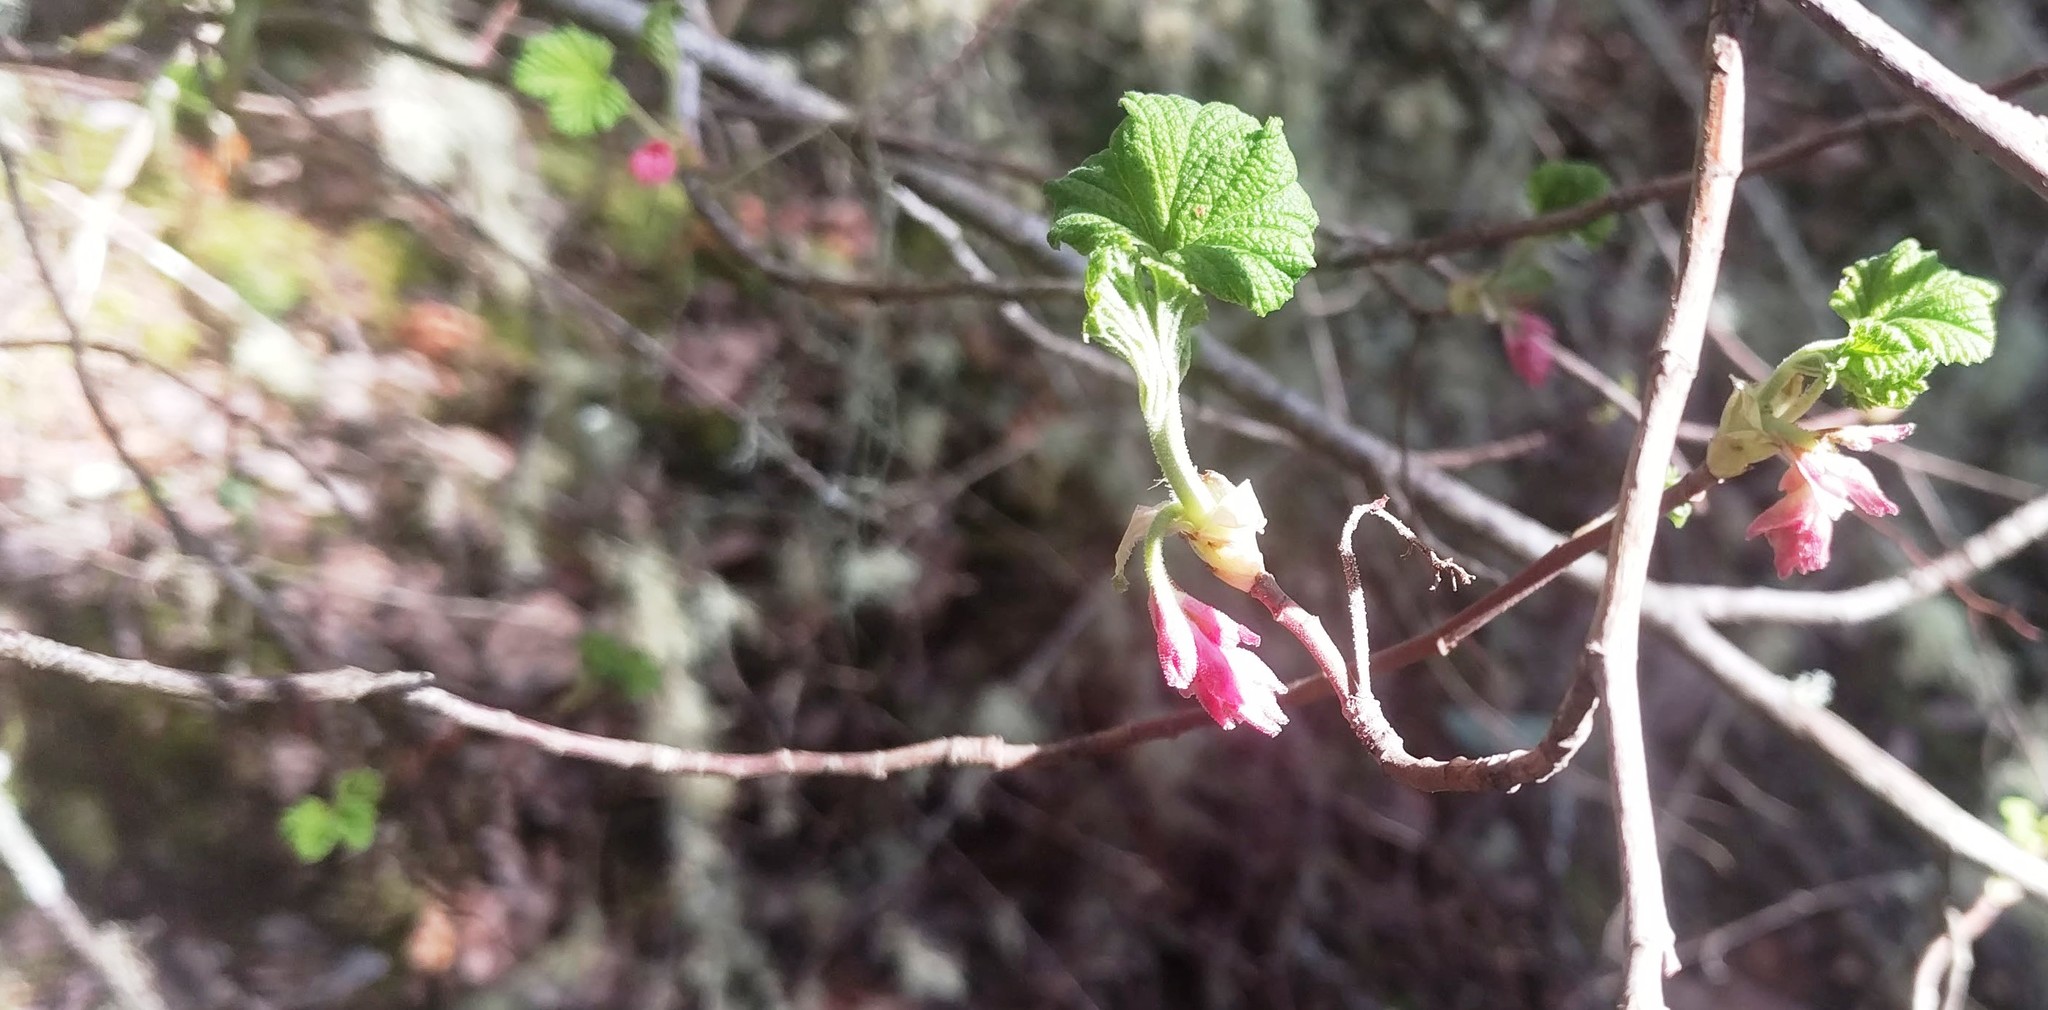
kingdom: Plantae
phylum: Tracheophyta
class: Magnoliopsida
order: Saxifragales
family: Grossulariaceae
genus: Ribes
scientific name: Ribes sanguineum
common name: Flowering currant
